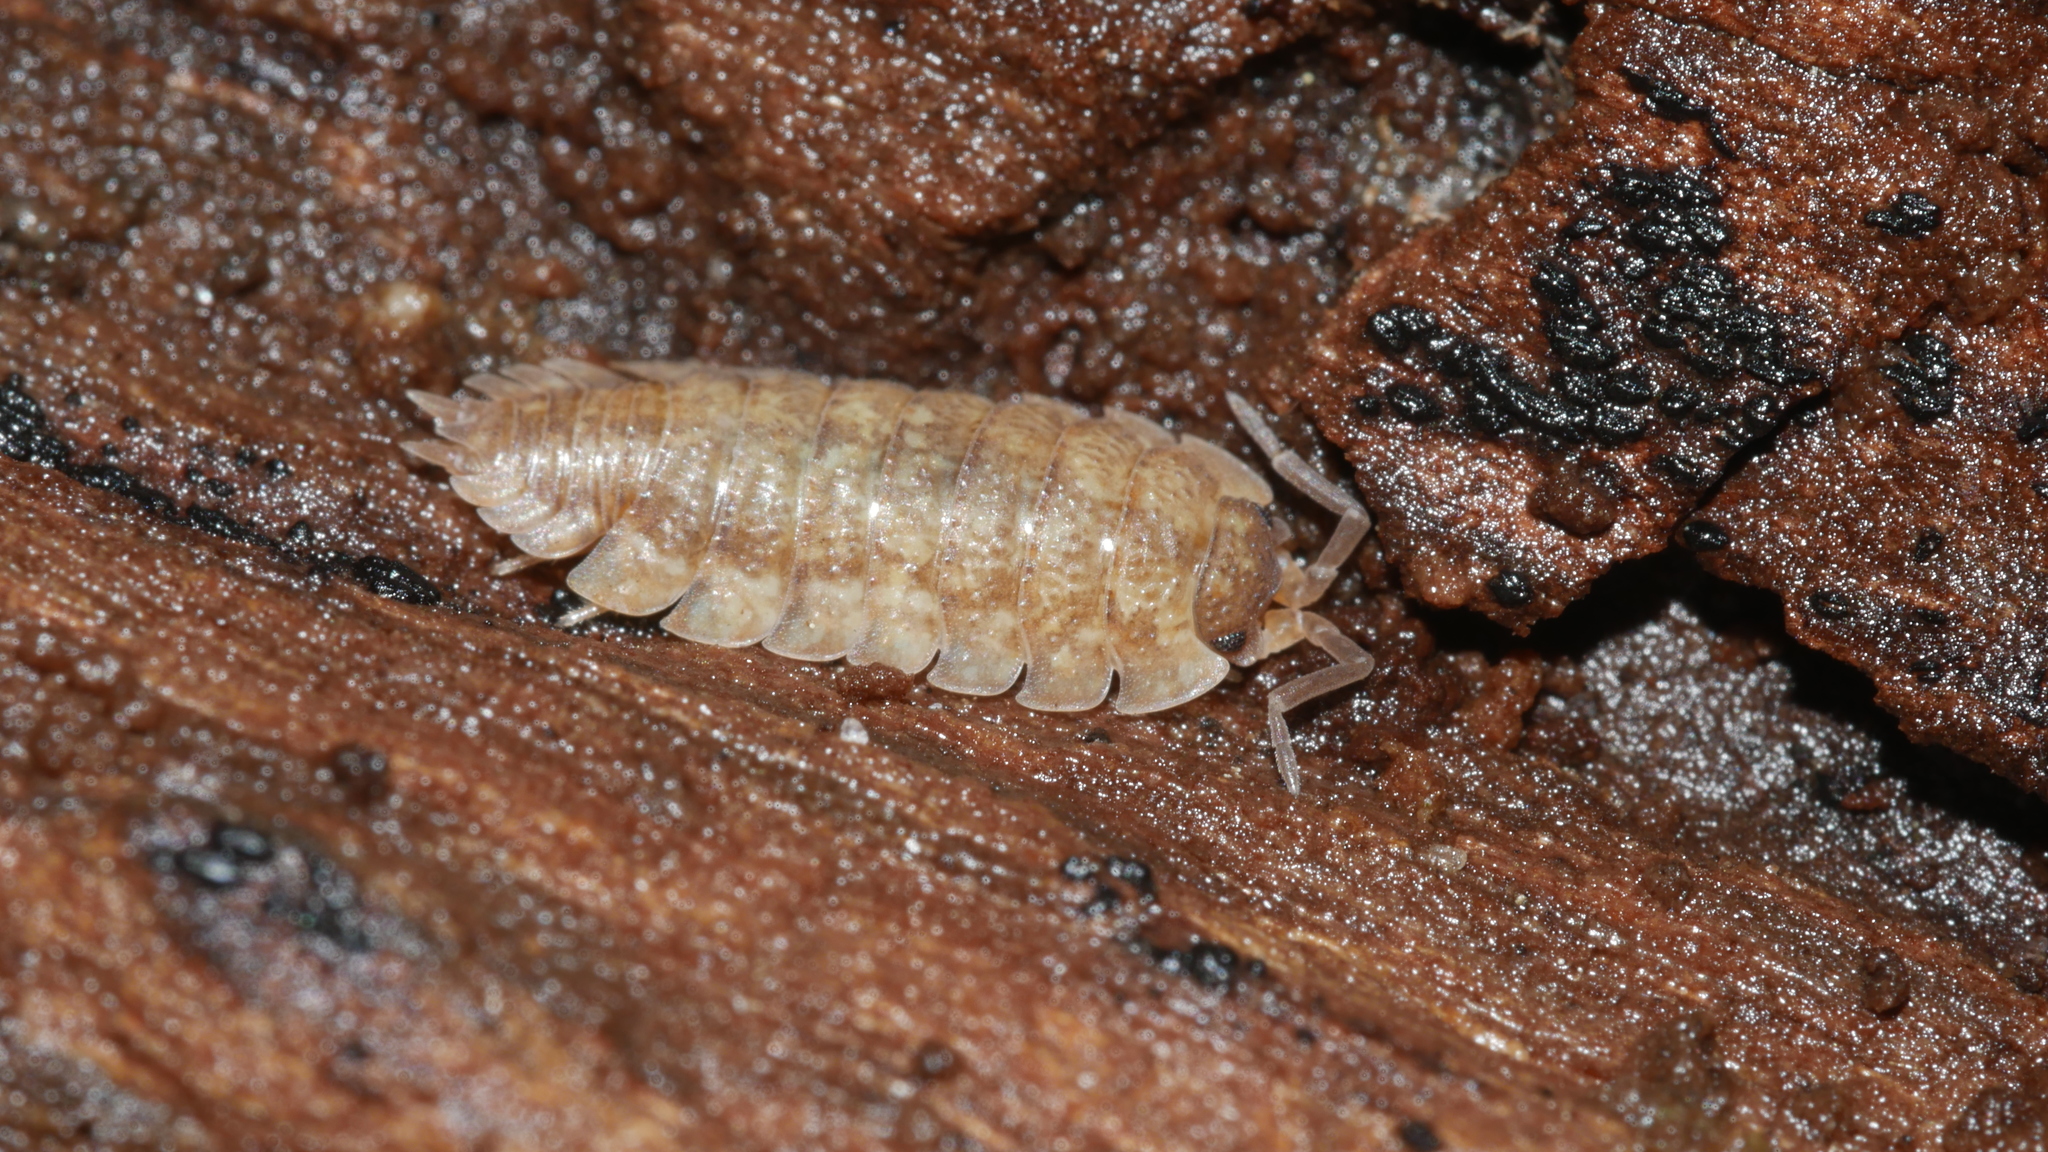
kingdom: Animalia
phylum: Arthropoda
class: Malacostraca
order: Isopoda
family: Porcellionidae
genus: Porcellio
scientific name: Porcellio scaber
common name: Common rough woodlouse
